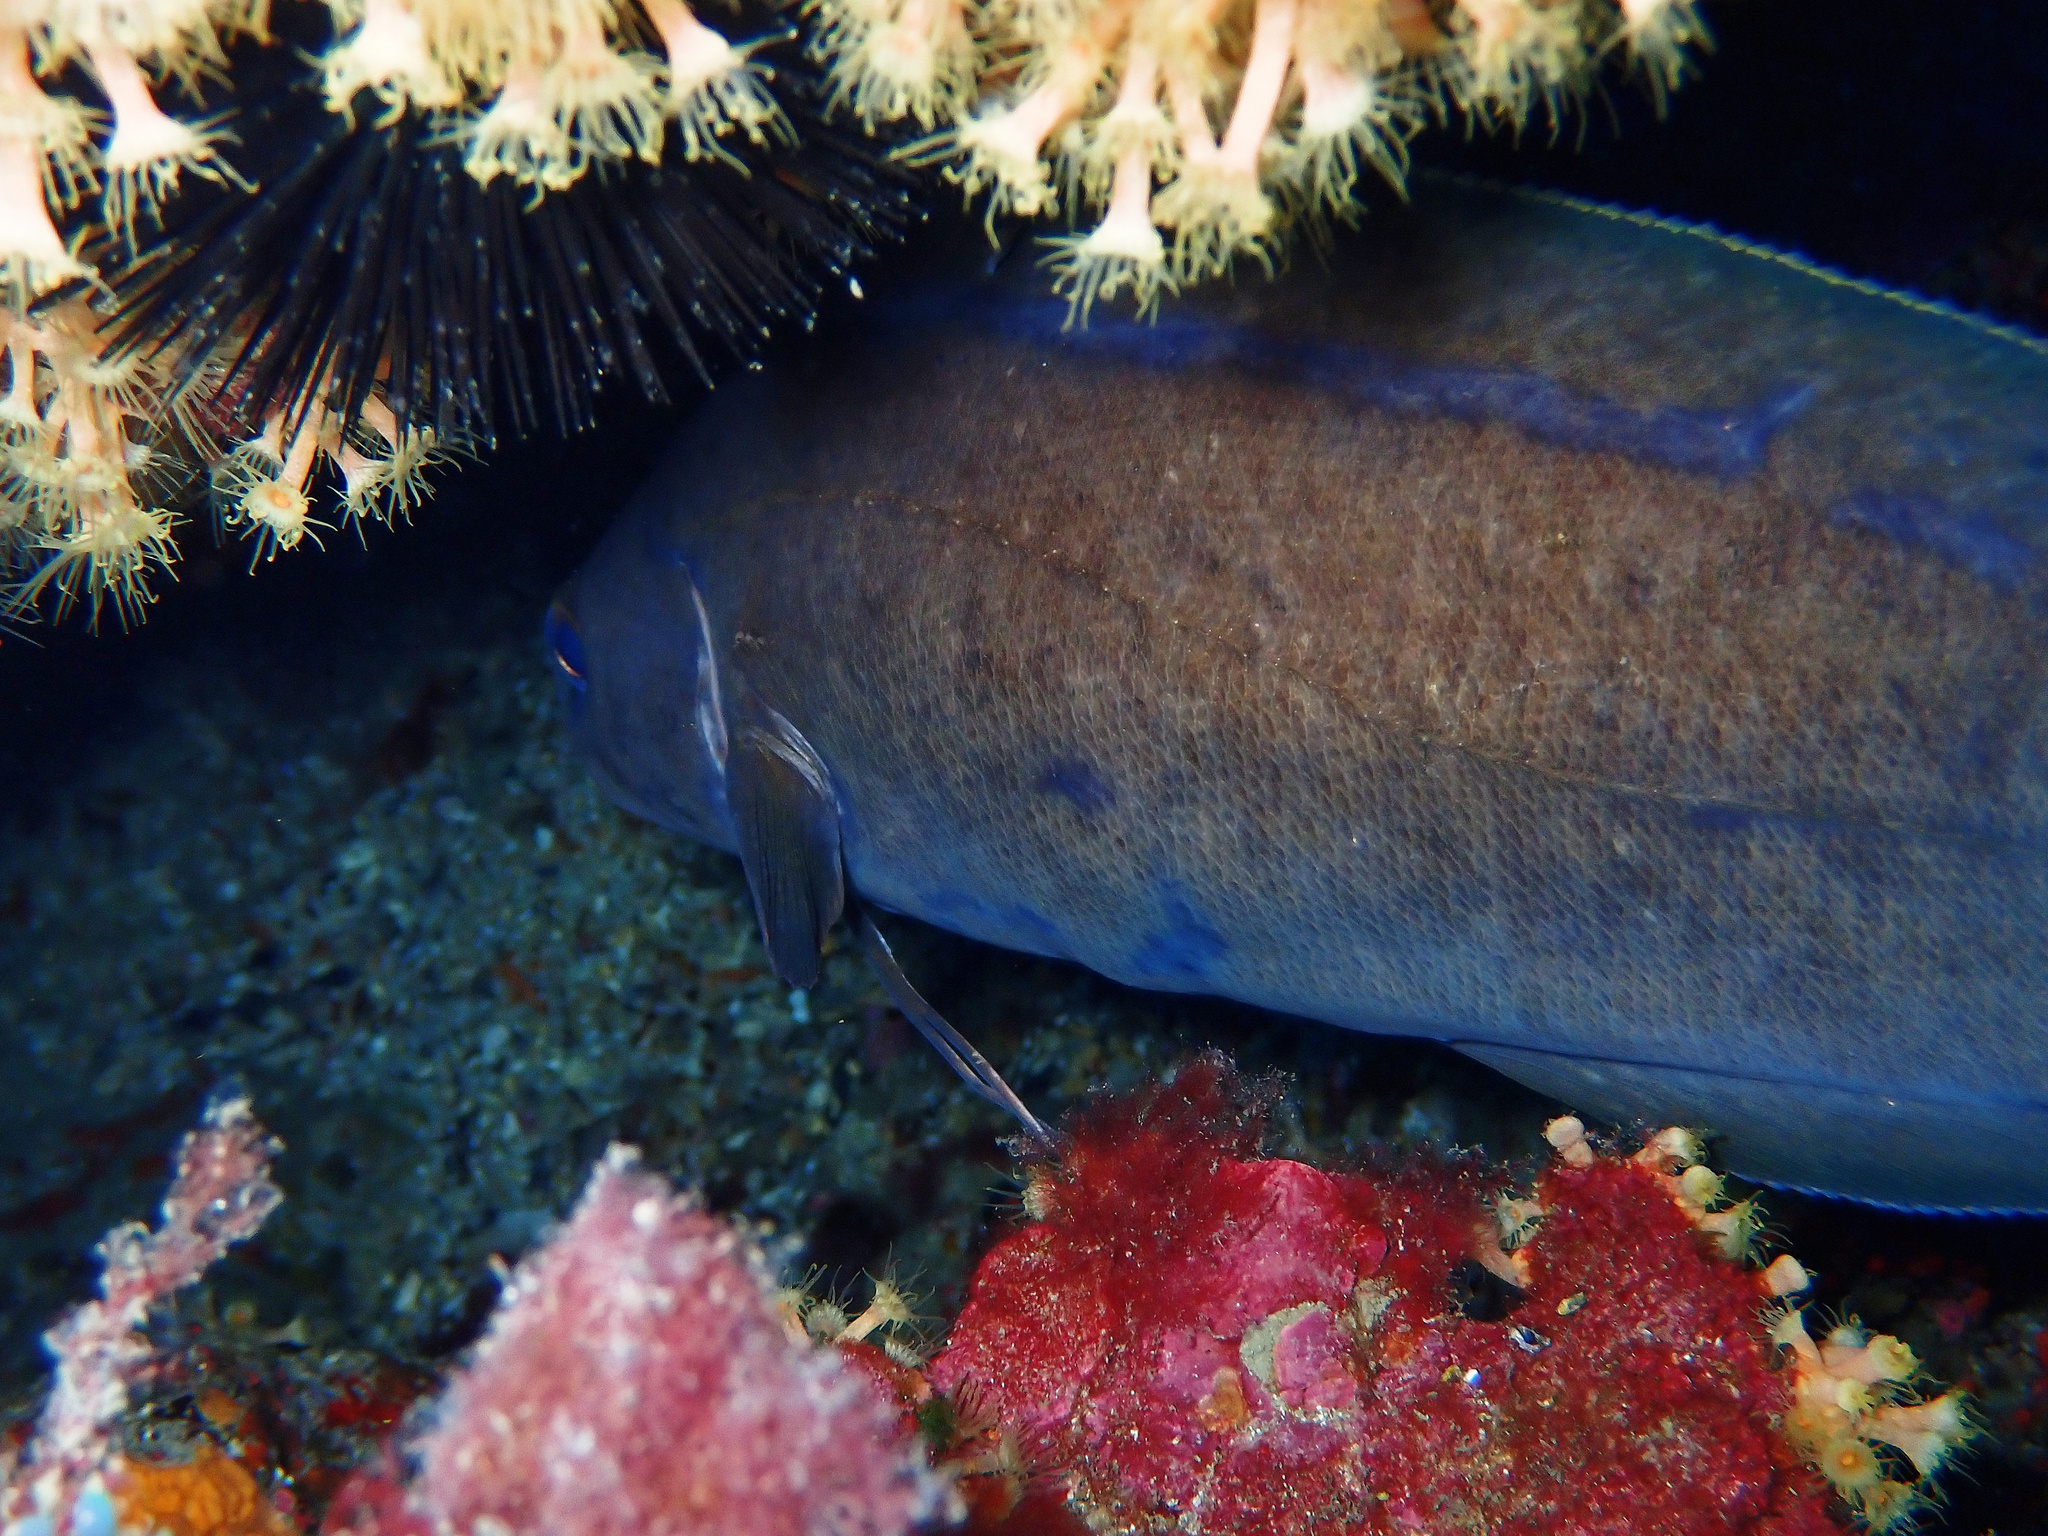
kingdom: Animalia
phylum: Chordata
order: Gadiformes
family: Phycidae
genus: Phycis
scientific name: Phycis phycis
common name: Forkbeard
